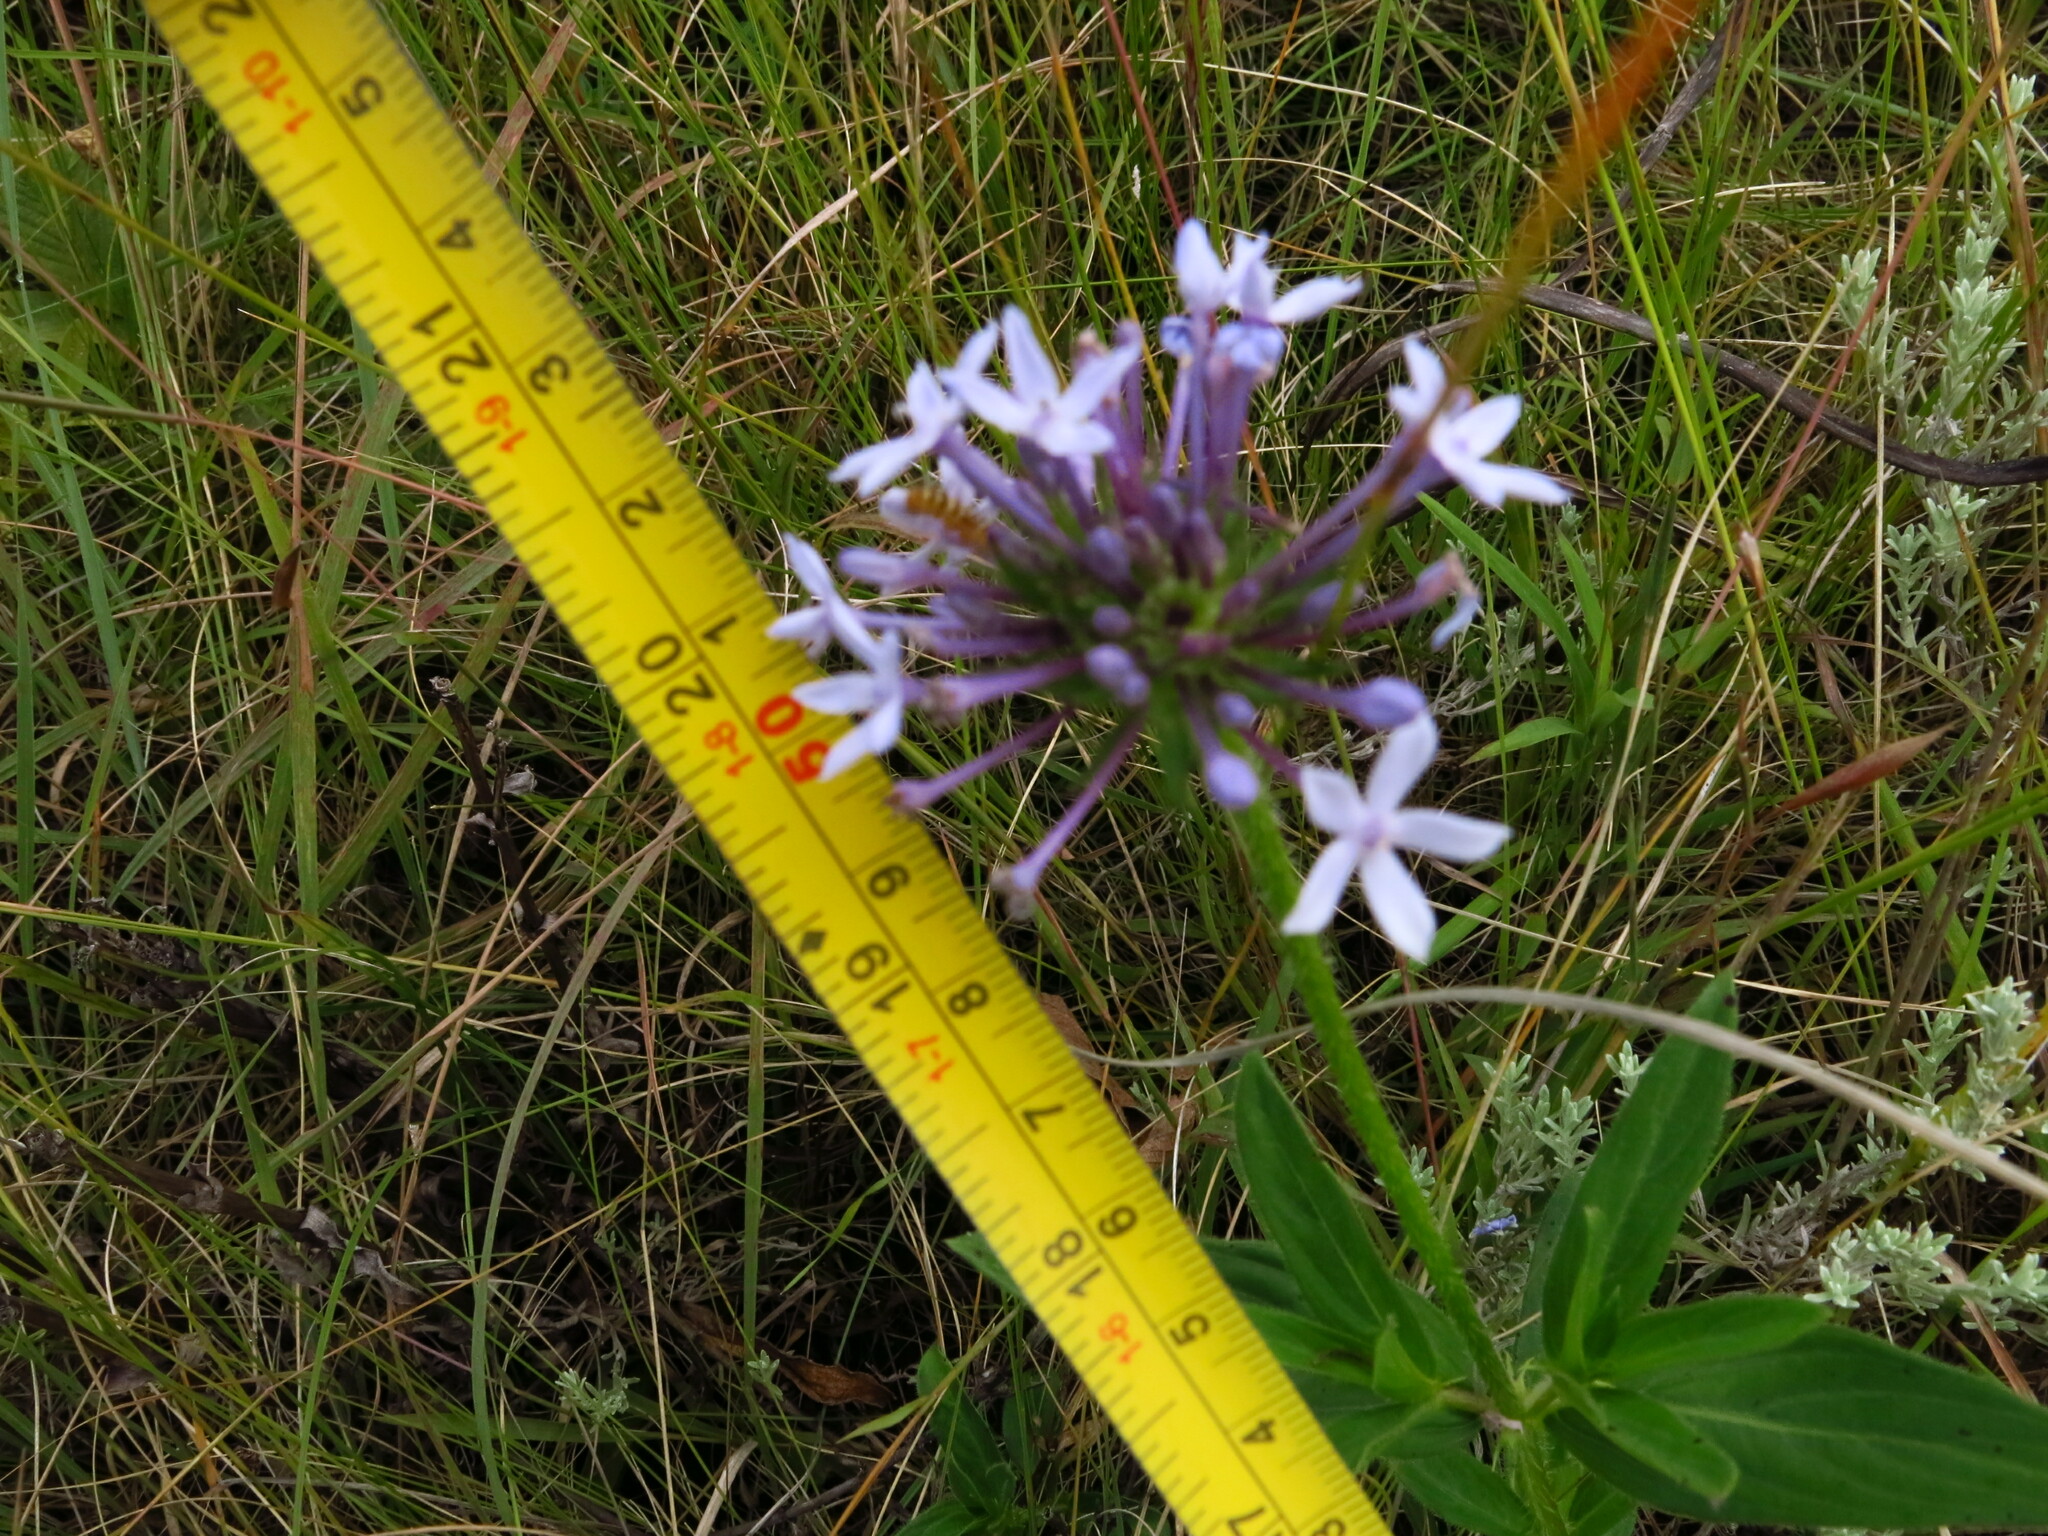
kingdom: Plantae
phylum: Tracheophyta
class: Magnoliopsida
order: Gentianales
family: Rubiaceae
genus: Pentanisia
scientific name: Pentanisia prunelloides
